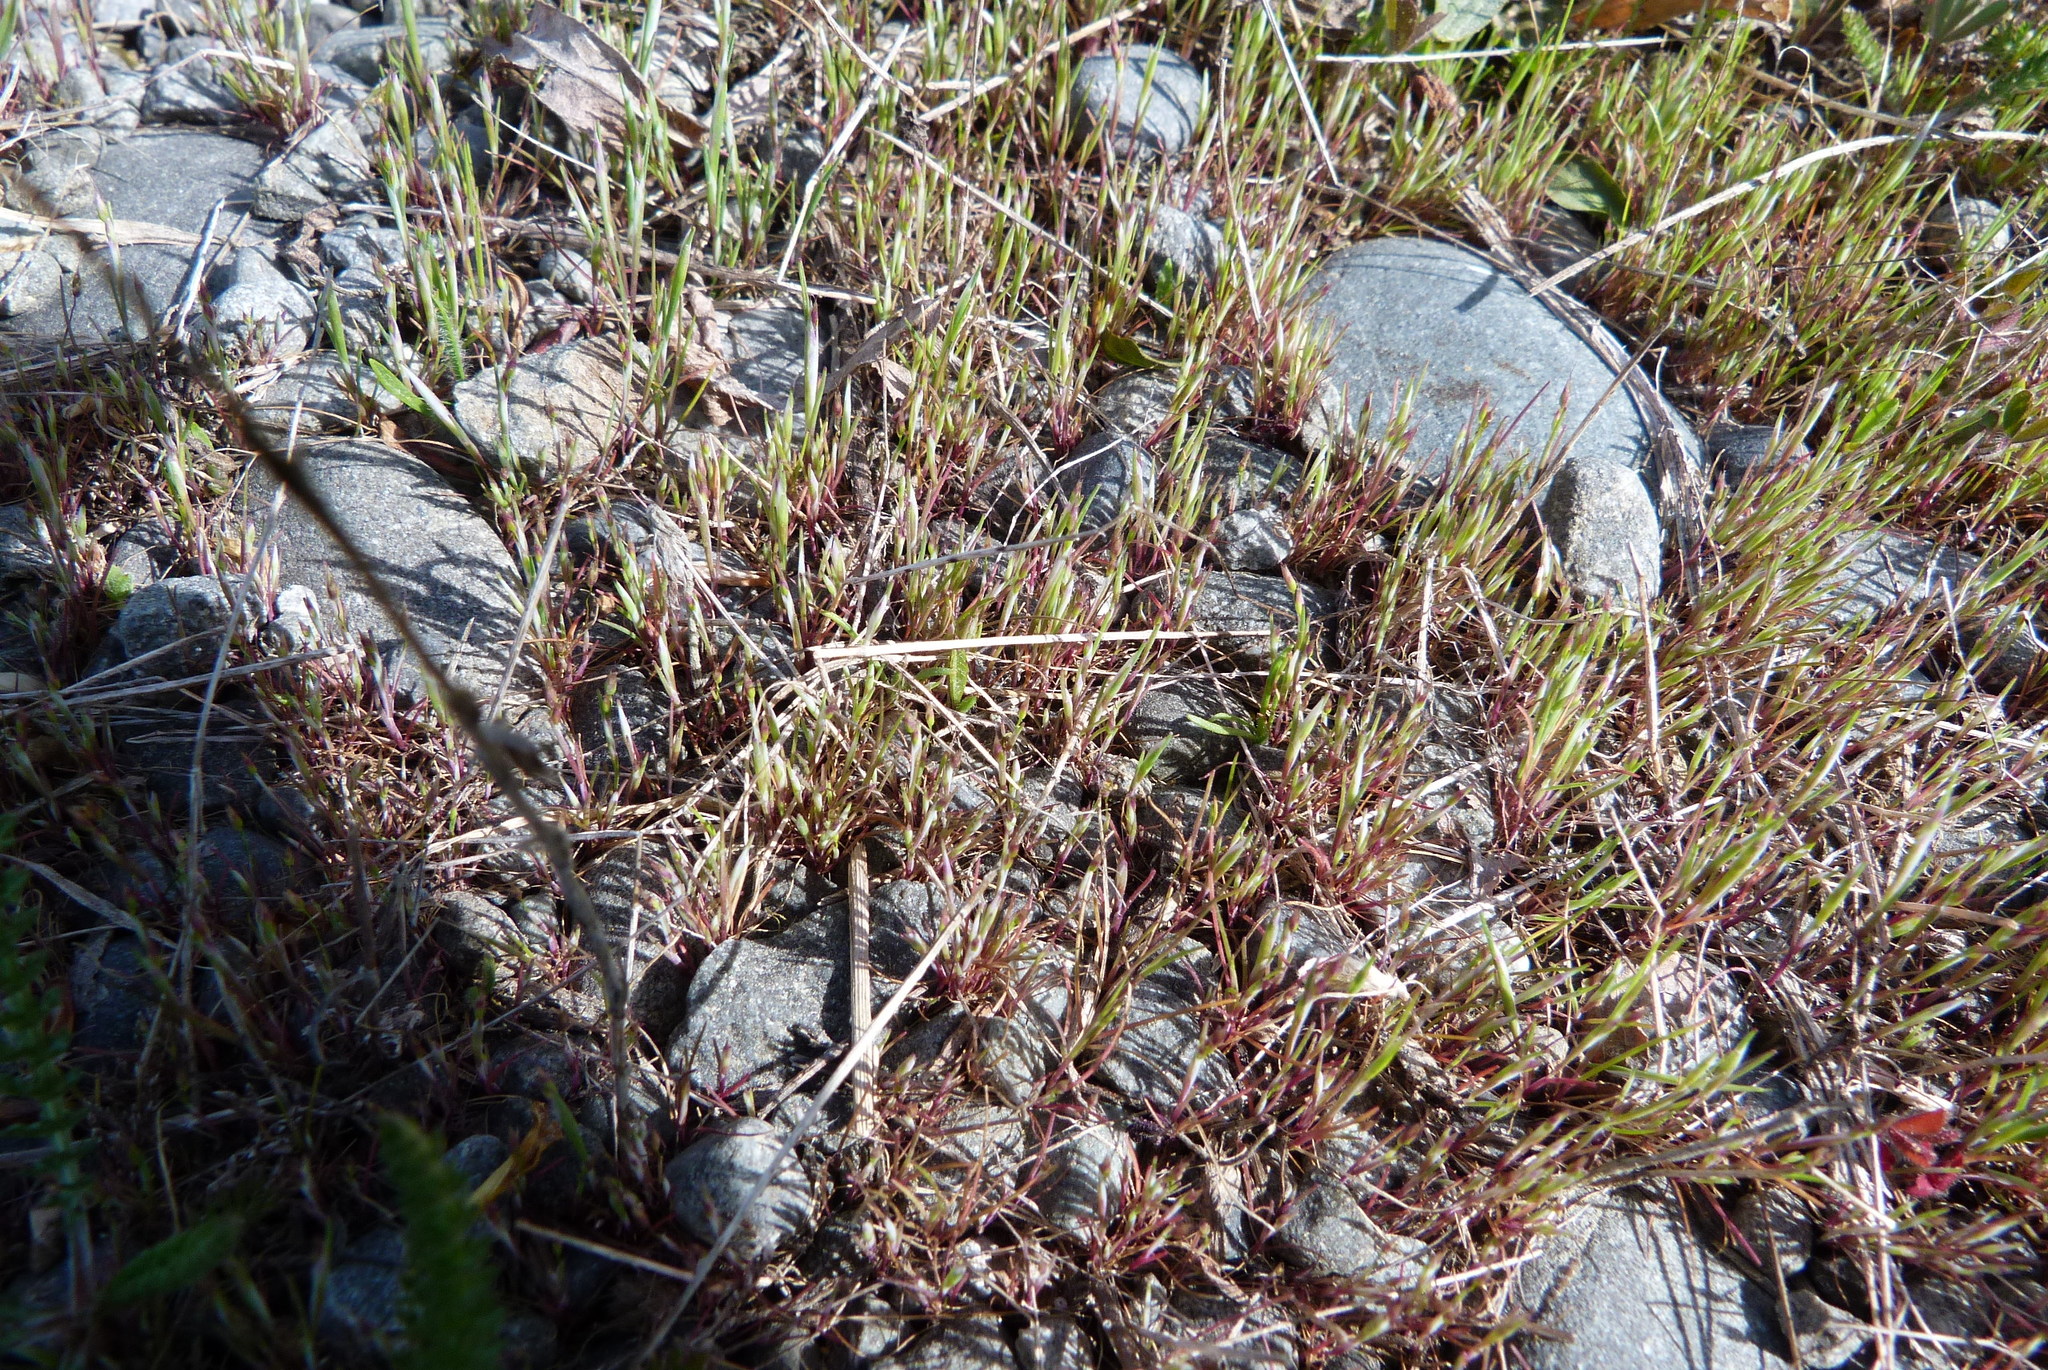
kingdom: Plantae
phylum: Tracheophyta
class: Liliopsida
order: Poales
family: Poaceae
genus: Aira
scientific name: Aira caryophyllea
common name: Silver hairgrass
